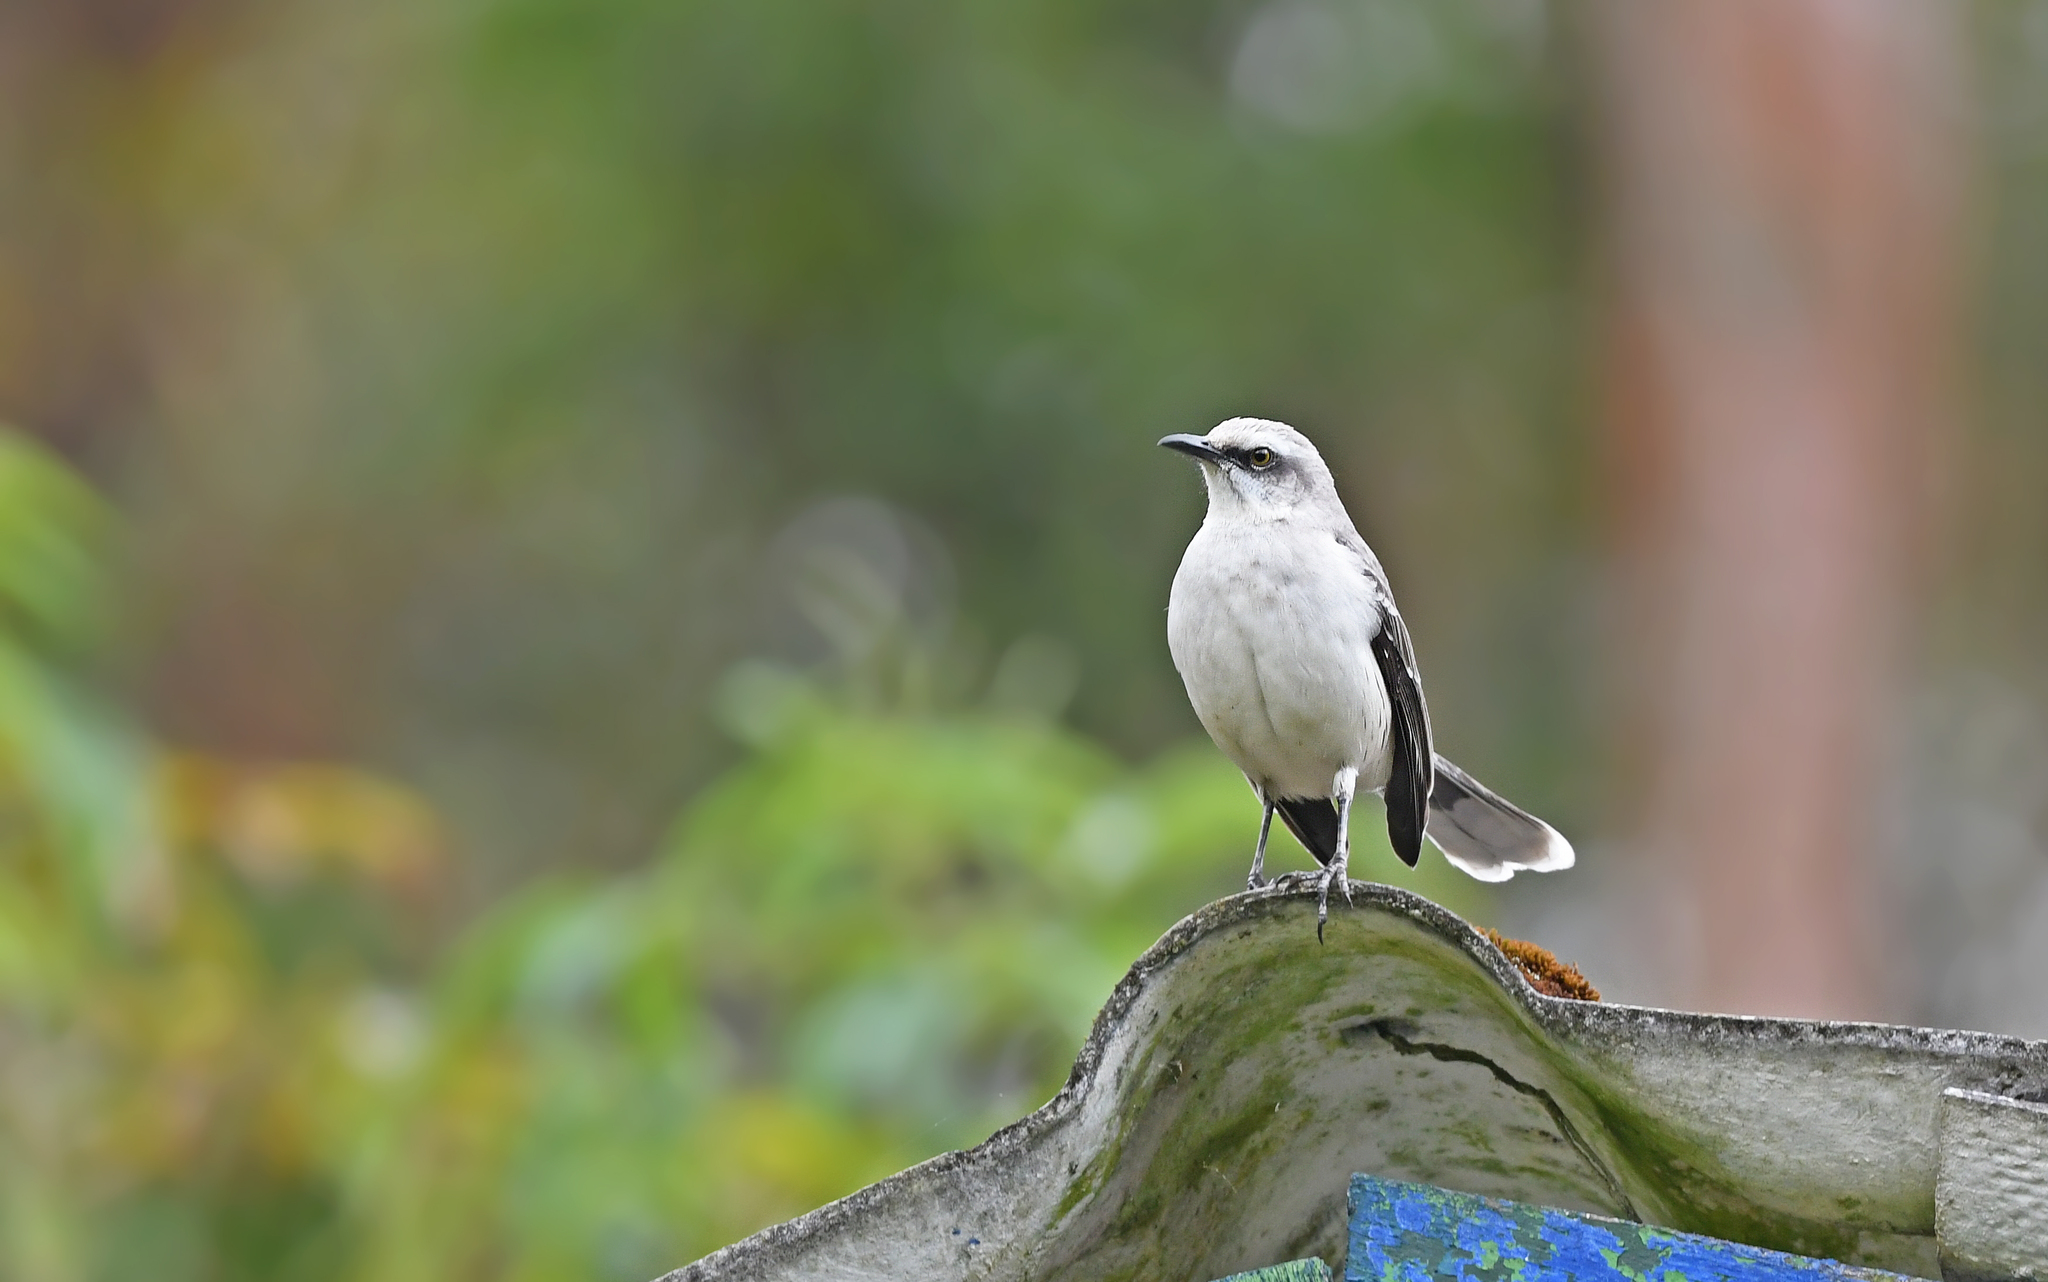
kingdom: Animalia
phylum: Chordata
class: Aves
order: Passeriformes
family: Mimidae
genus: Mimus
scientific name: Mimus gilvus
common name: Tropical mockingbird
